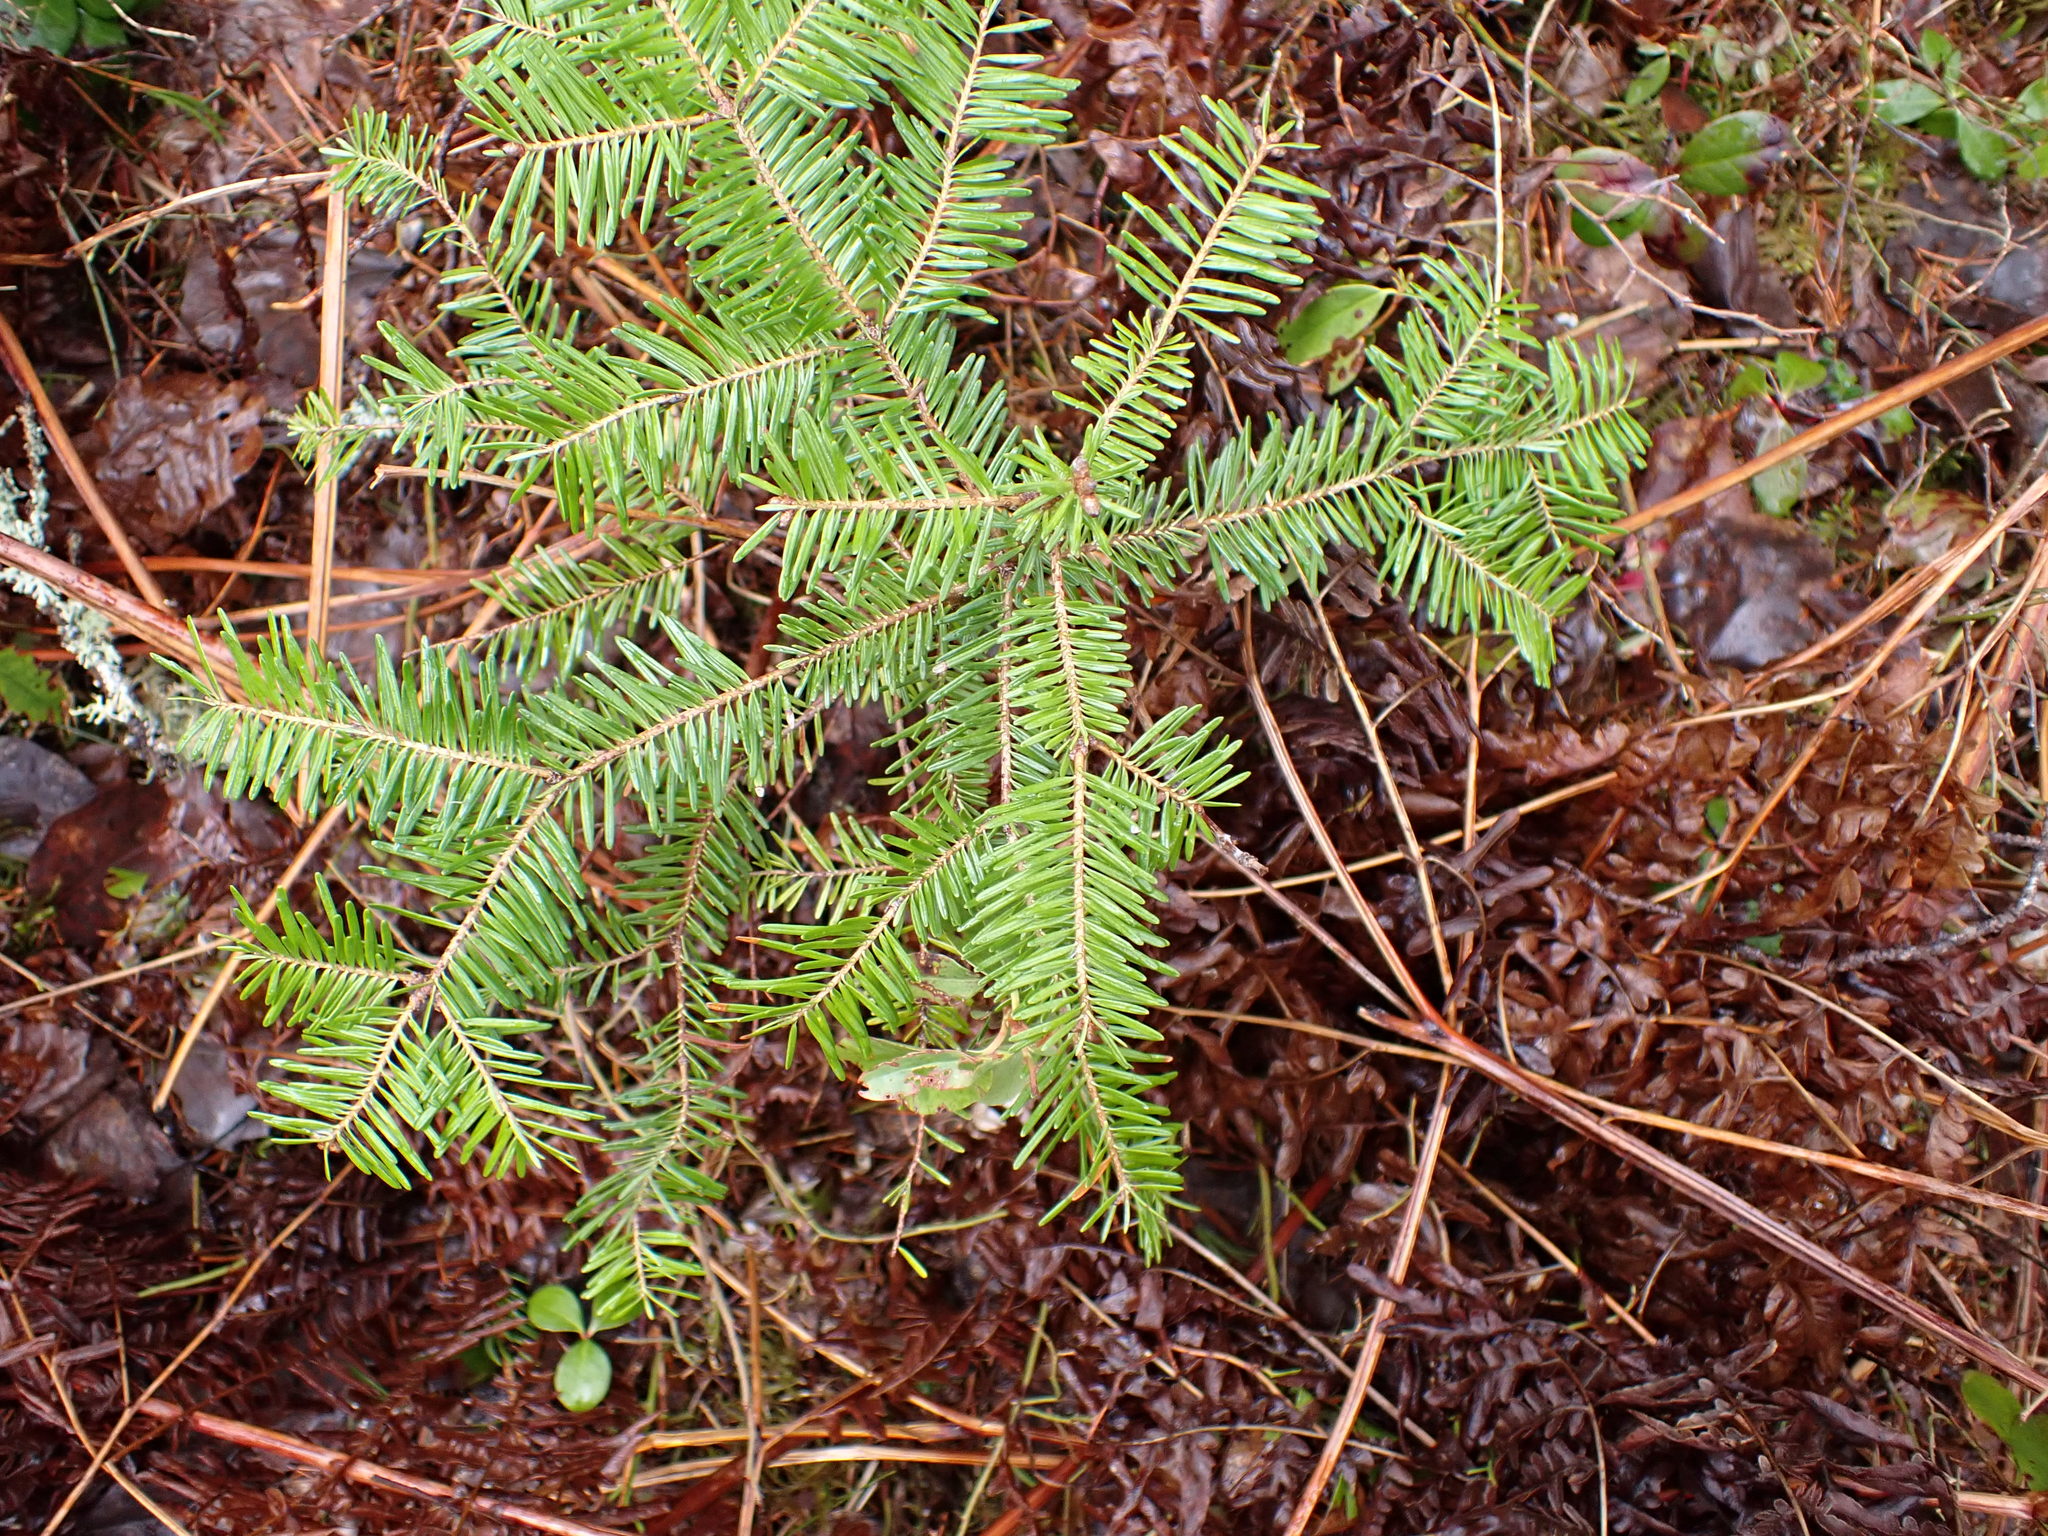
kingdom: Plantae
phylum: Tracheophyta
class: Pinopsida
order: Pinales
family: Pinaceae
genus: Abies
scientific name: Abies balsamea
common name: Balsam fir
